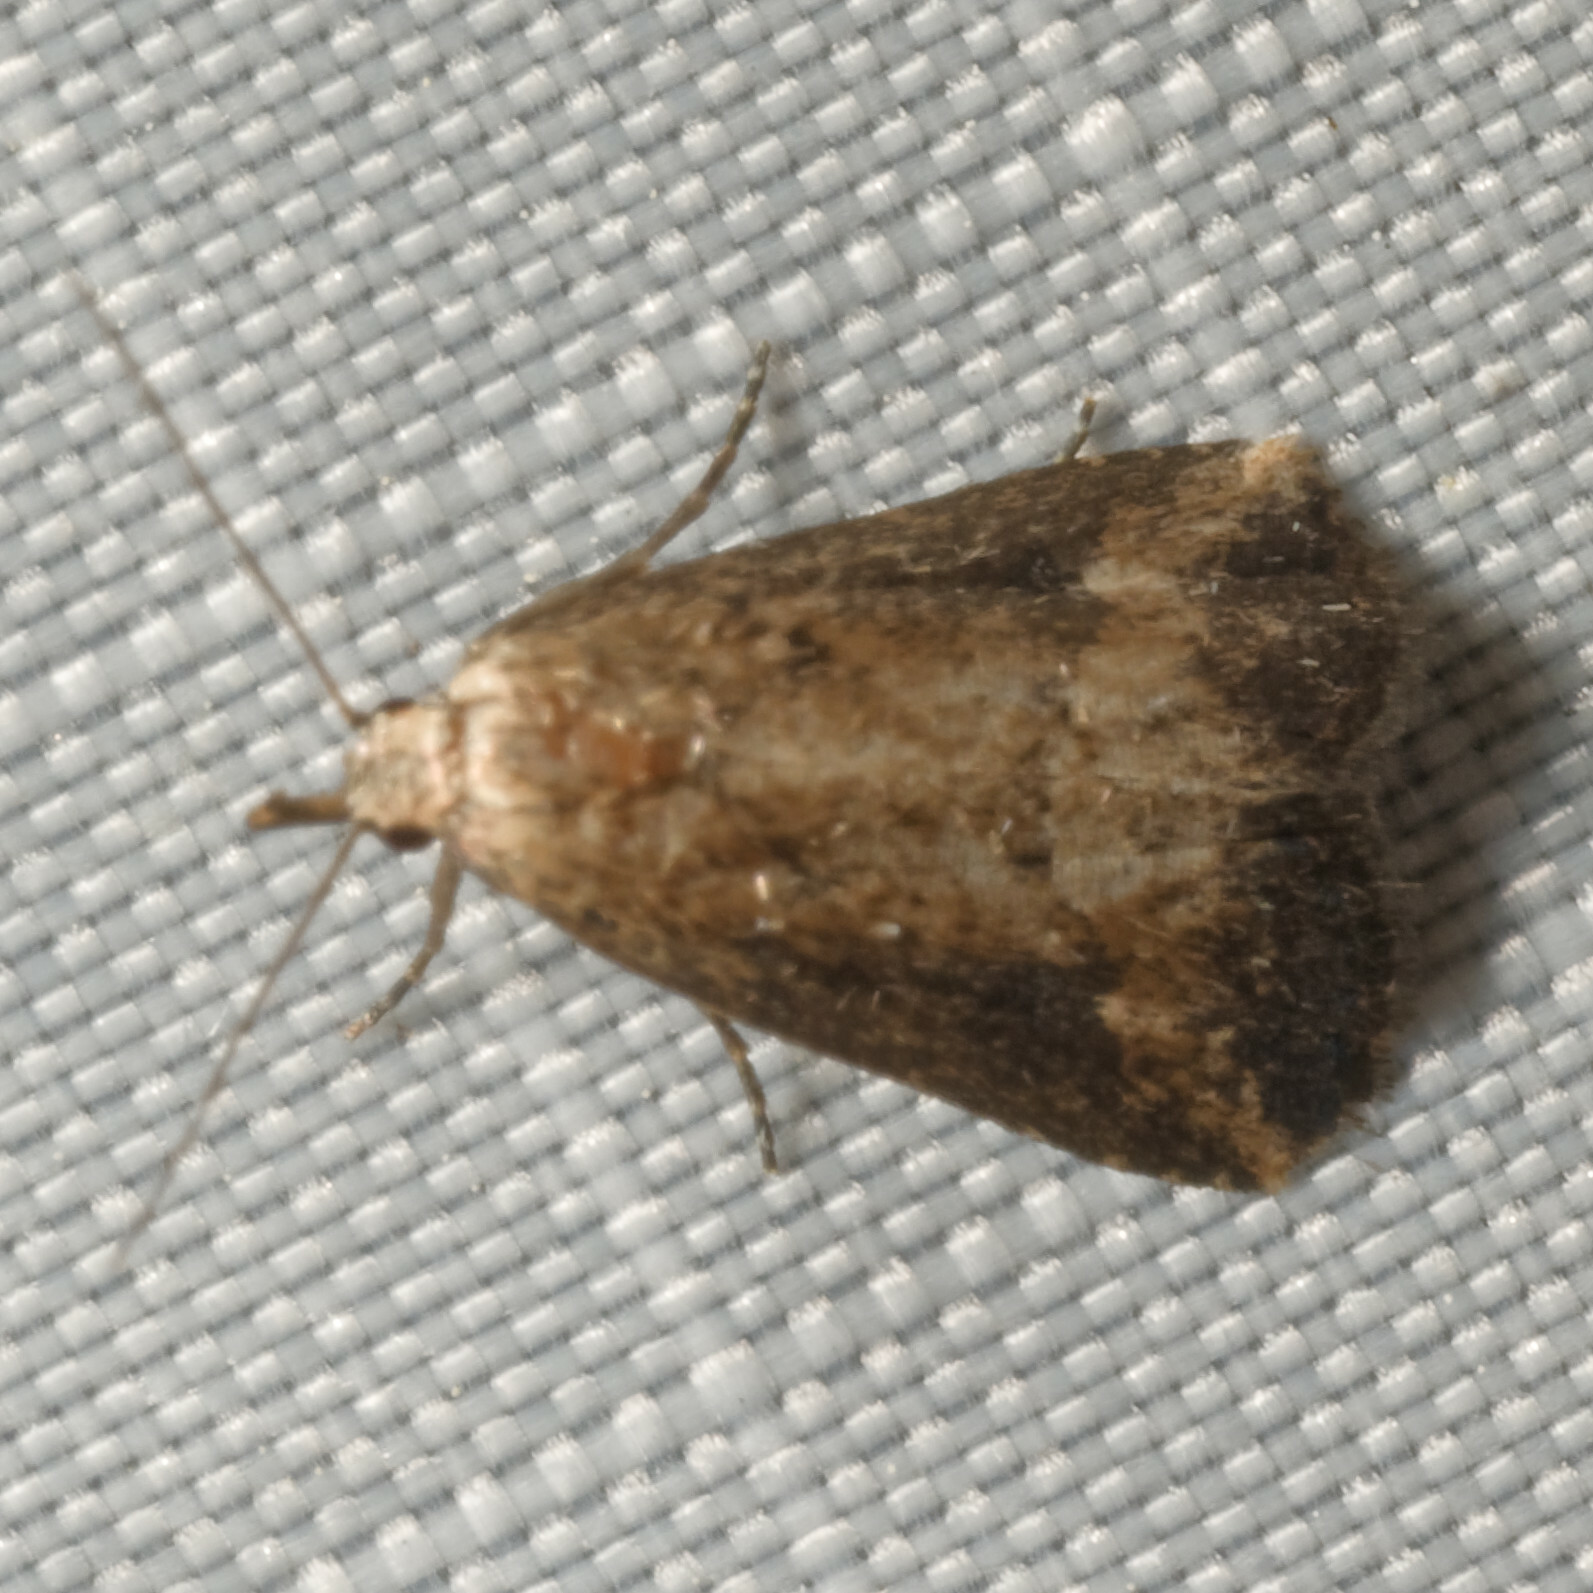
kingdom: Animalia
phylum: Arthropoda
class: Insecta
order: Lepidoptera
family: Erebidae
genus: Schrankia
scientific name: Schrankia
